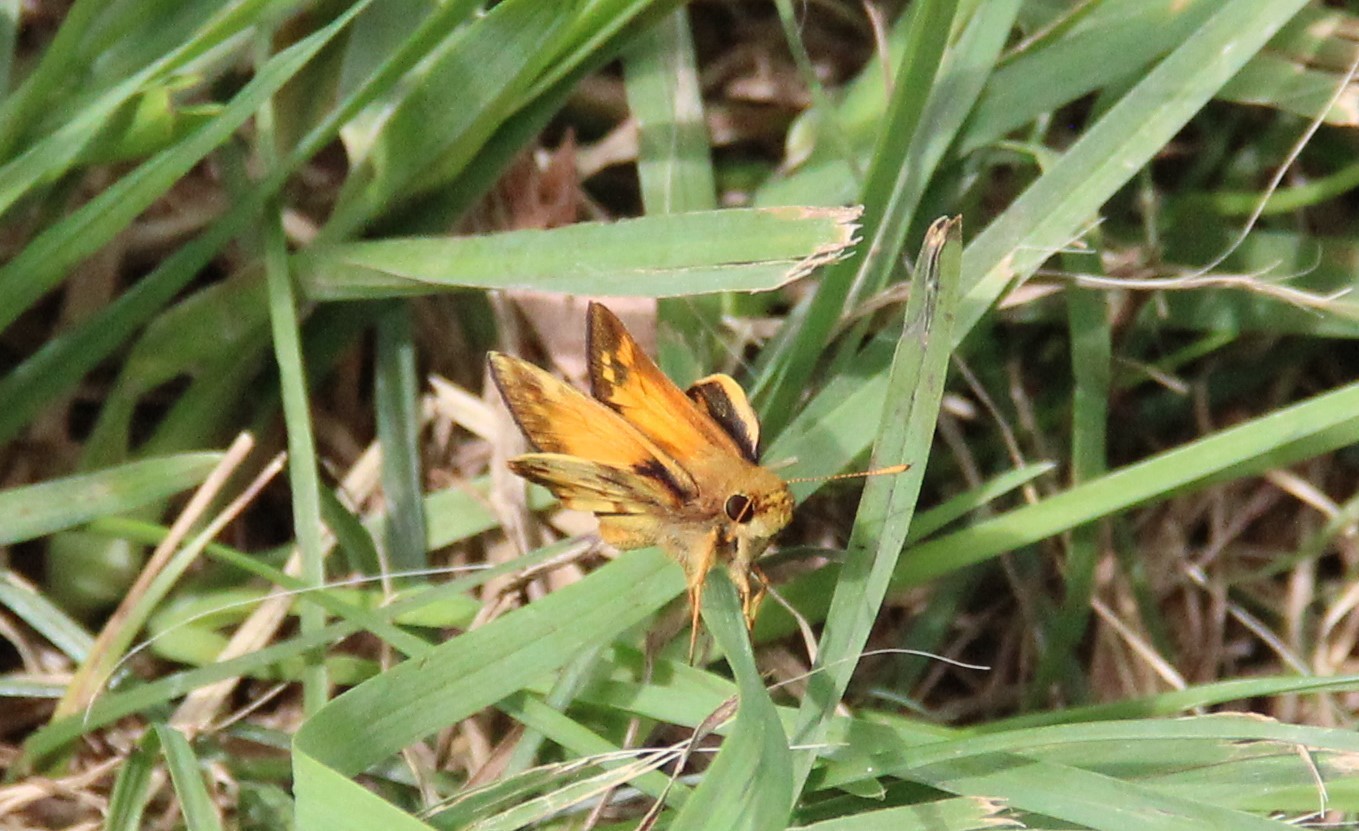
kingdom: Animalia
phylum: Arthropoda
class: Insecta
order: Lepidoptera
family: Hesperiidae
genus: Lon
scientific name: Lon zabulon
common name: Zabulon skipper
